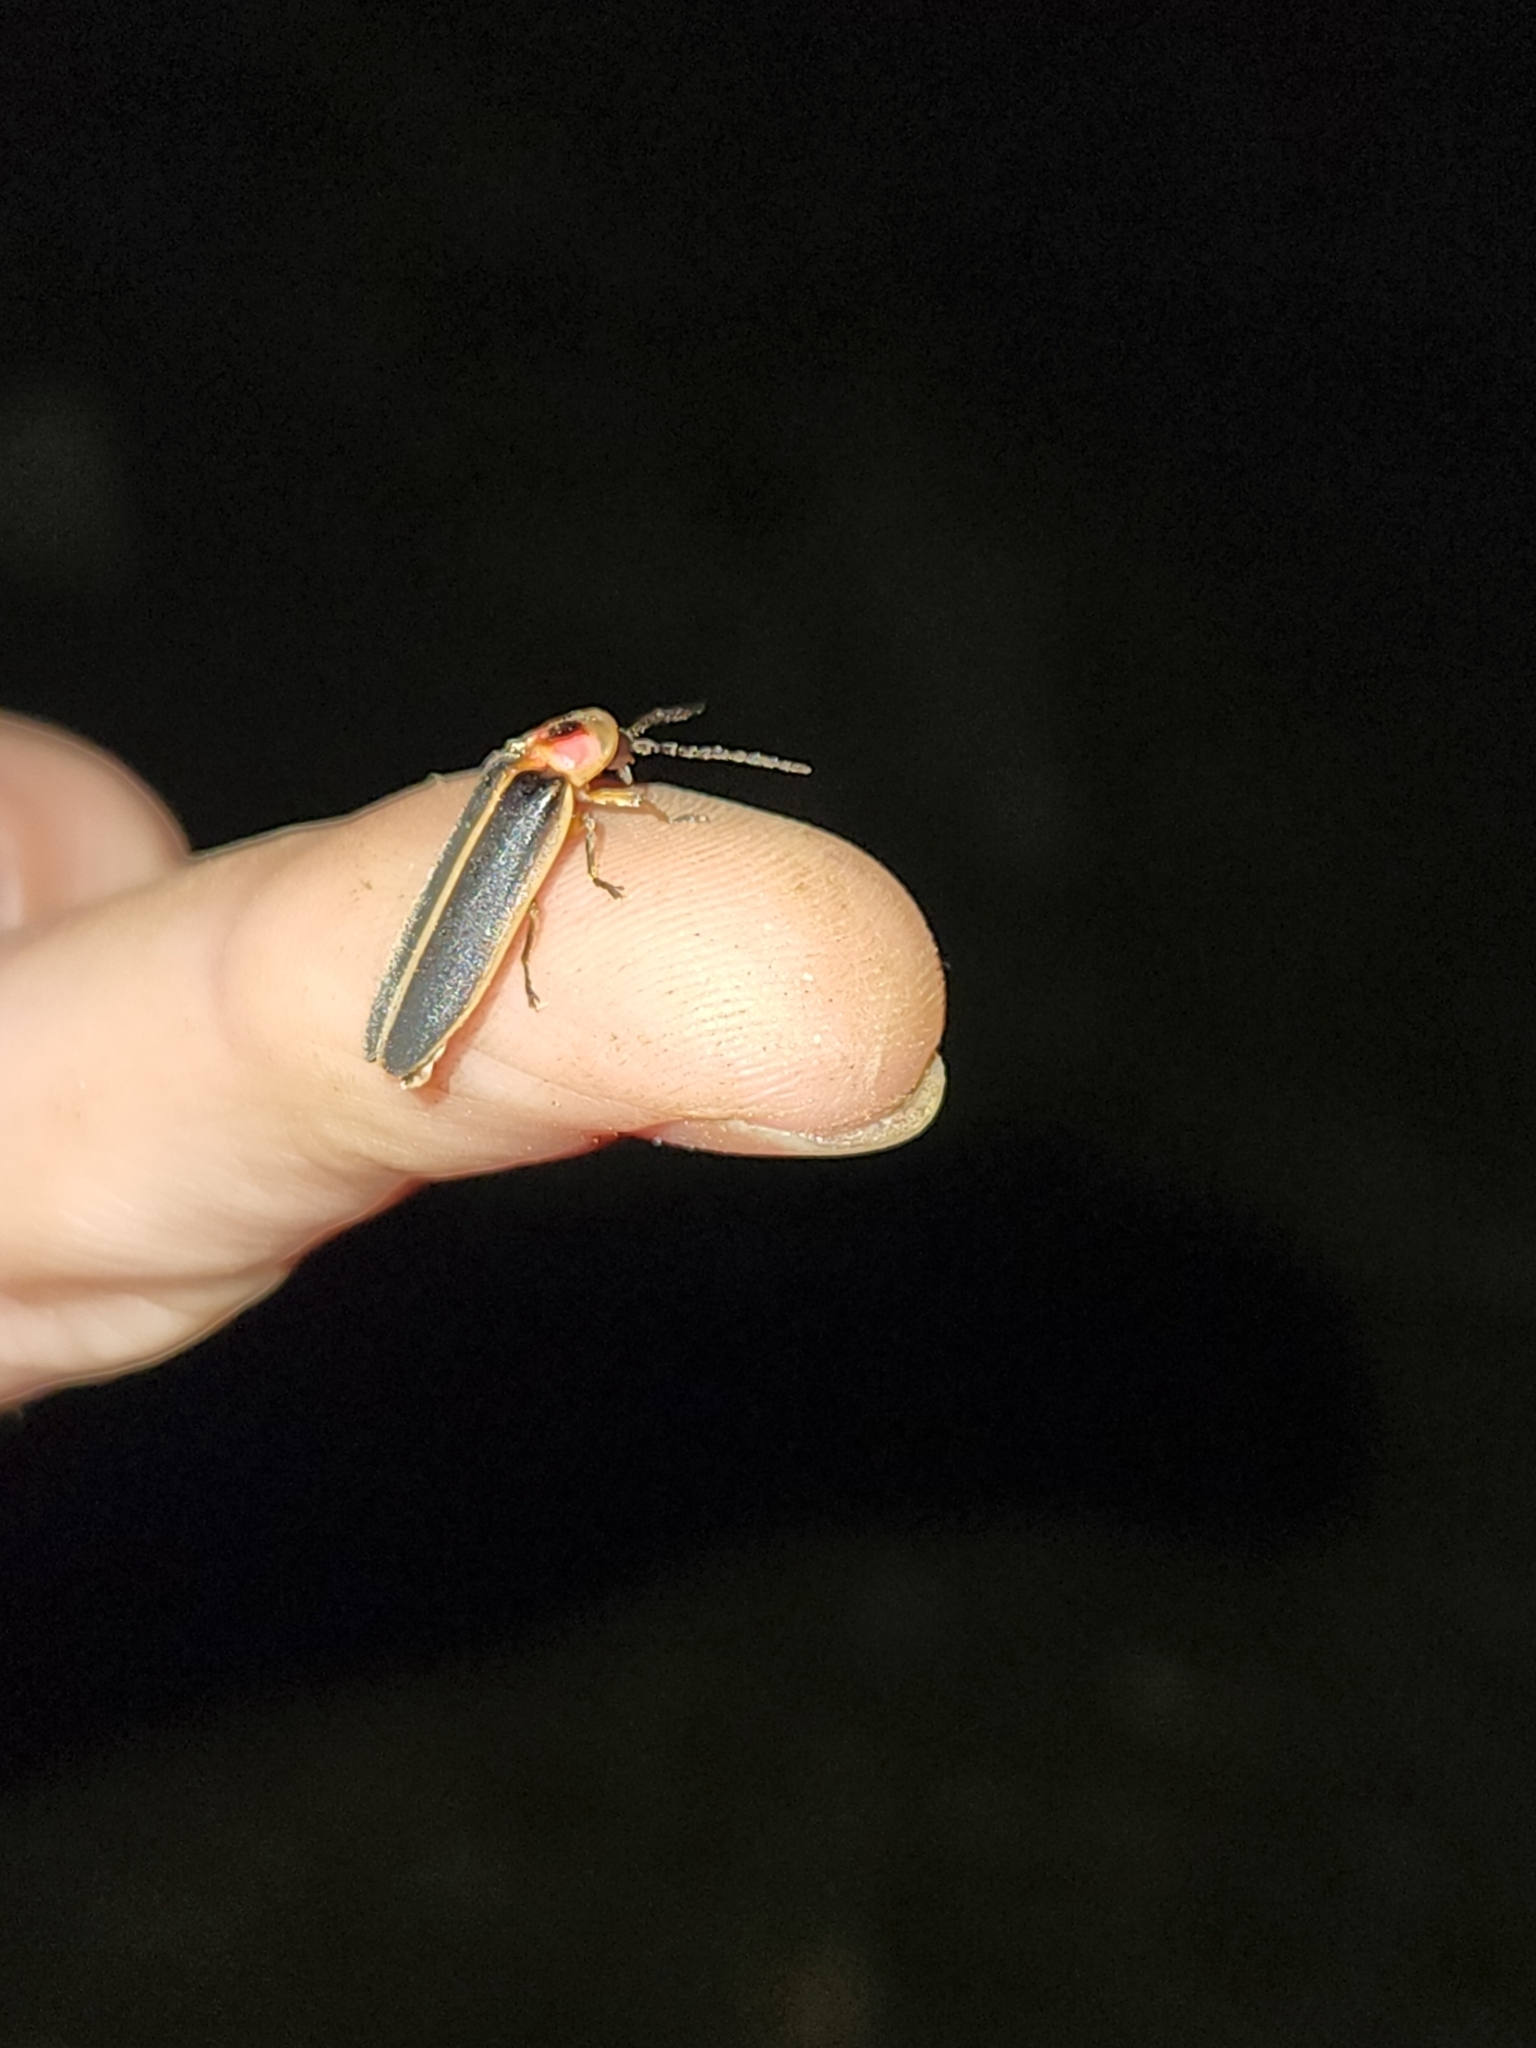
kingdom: Animalia
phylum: Arthropoda
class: Insecta
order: Coleoptera
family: Lampyridae
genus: Photinus
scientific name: Photinus pyralis
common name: Big dipper firefly
